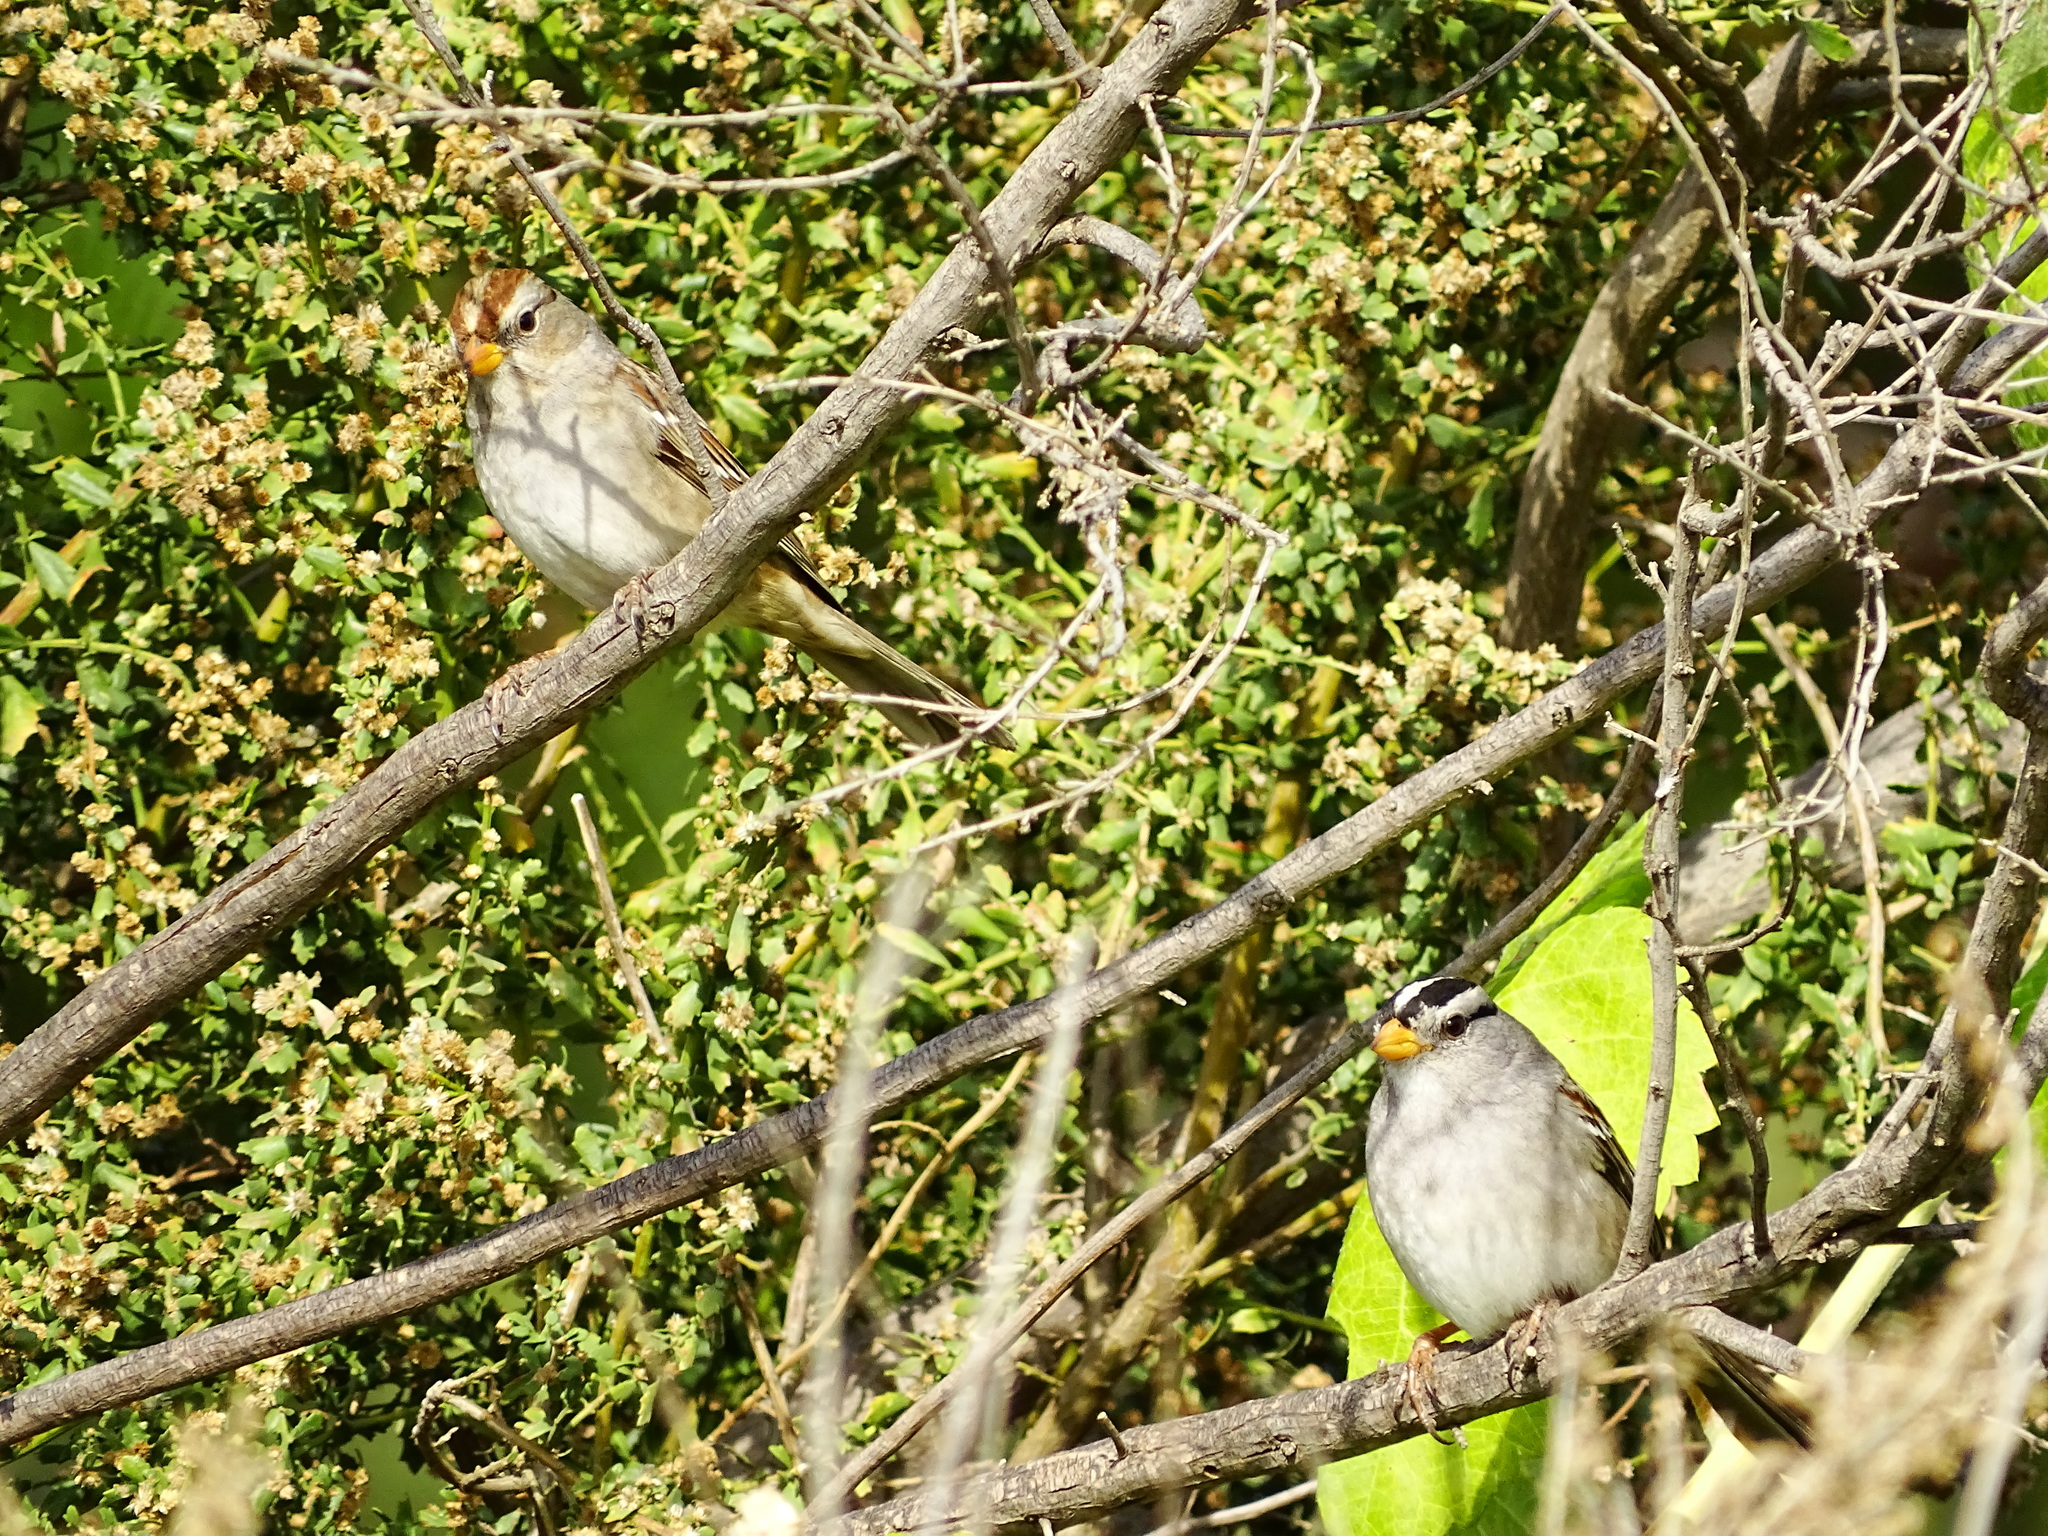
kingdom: Animalia
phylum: Chordata
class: Aves
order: Passeriformes
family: Passerellidae
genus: Zonotrichia
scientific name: Zonotrichia leucophrys
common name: White-crowned sparrow
